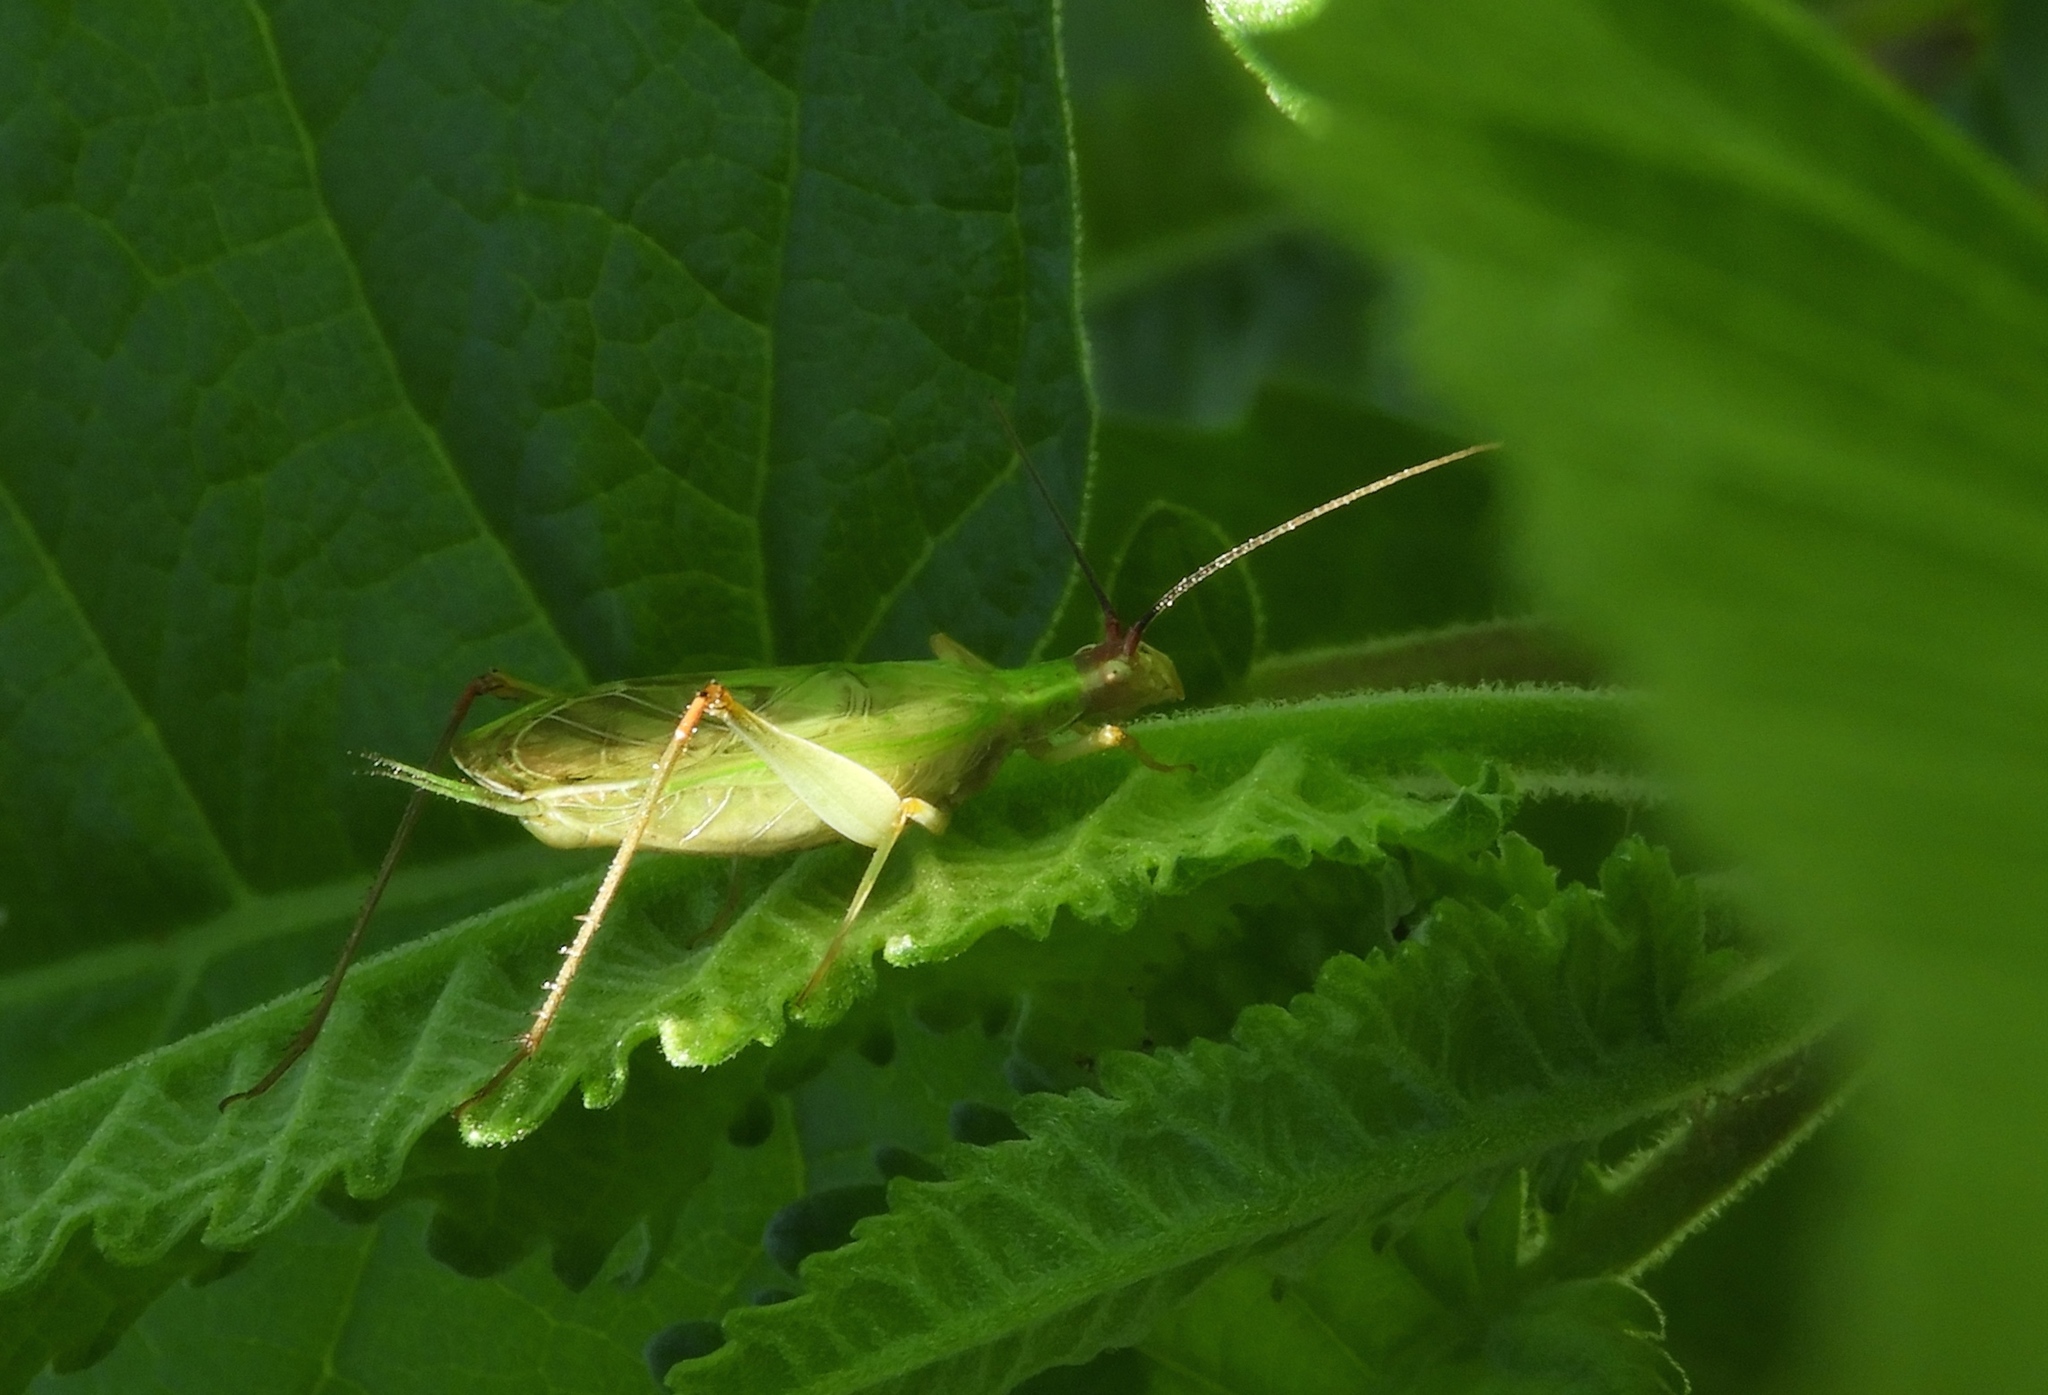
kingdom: Animalia
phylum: Arthropoda
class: Insecta
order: Orthoptera
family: Gryllidae
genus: Oecanthus
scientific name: Oecanthus
